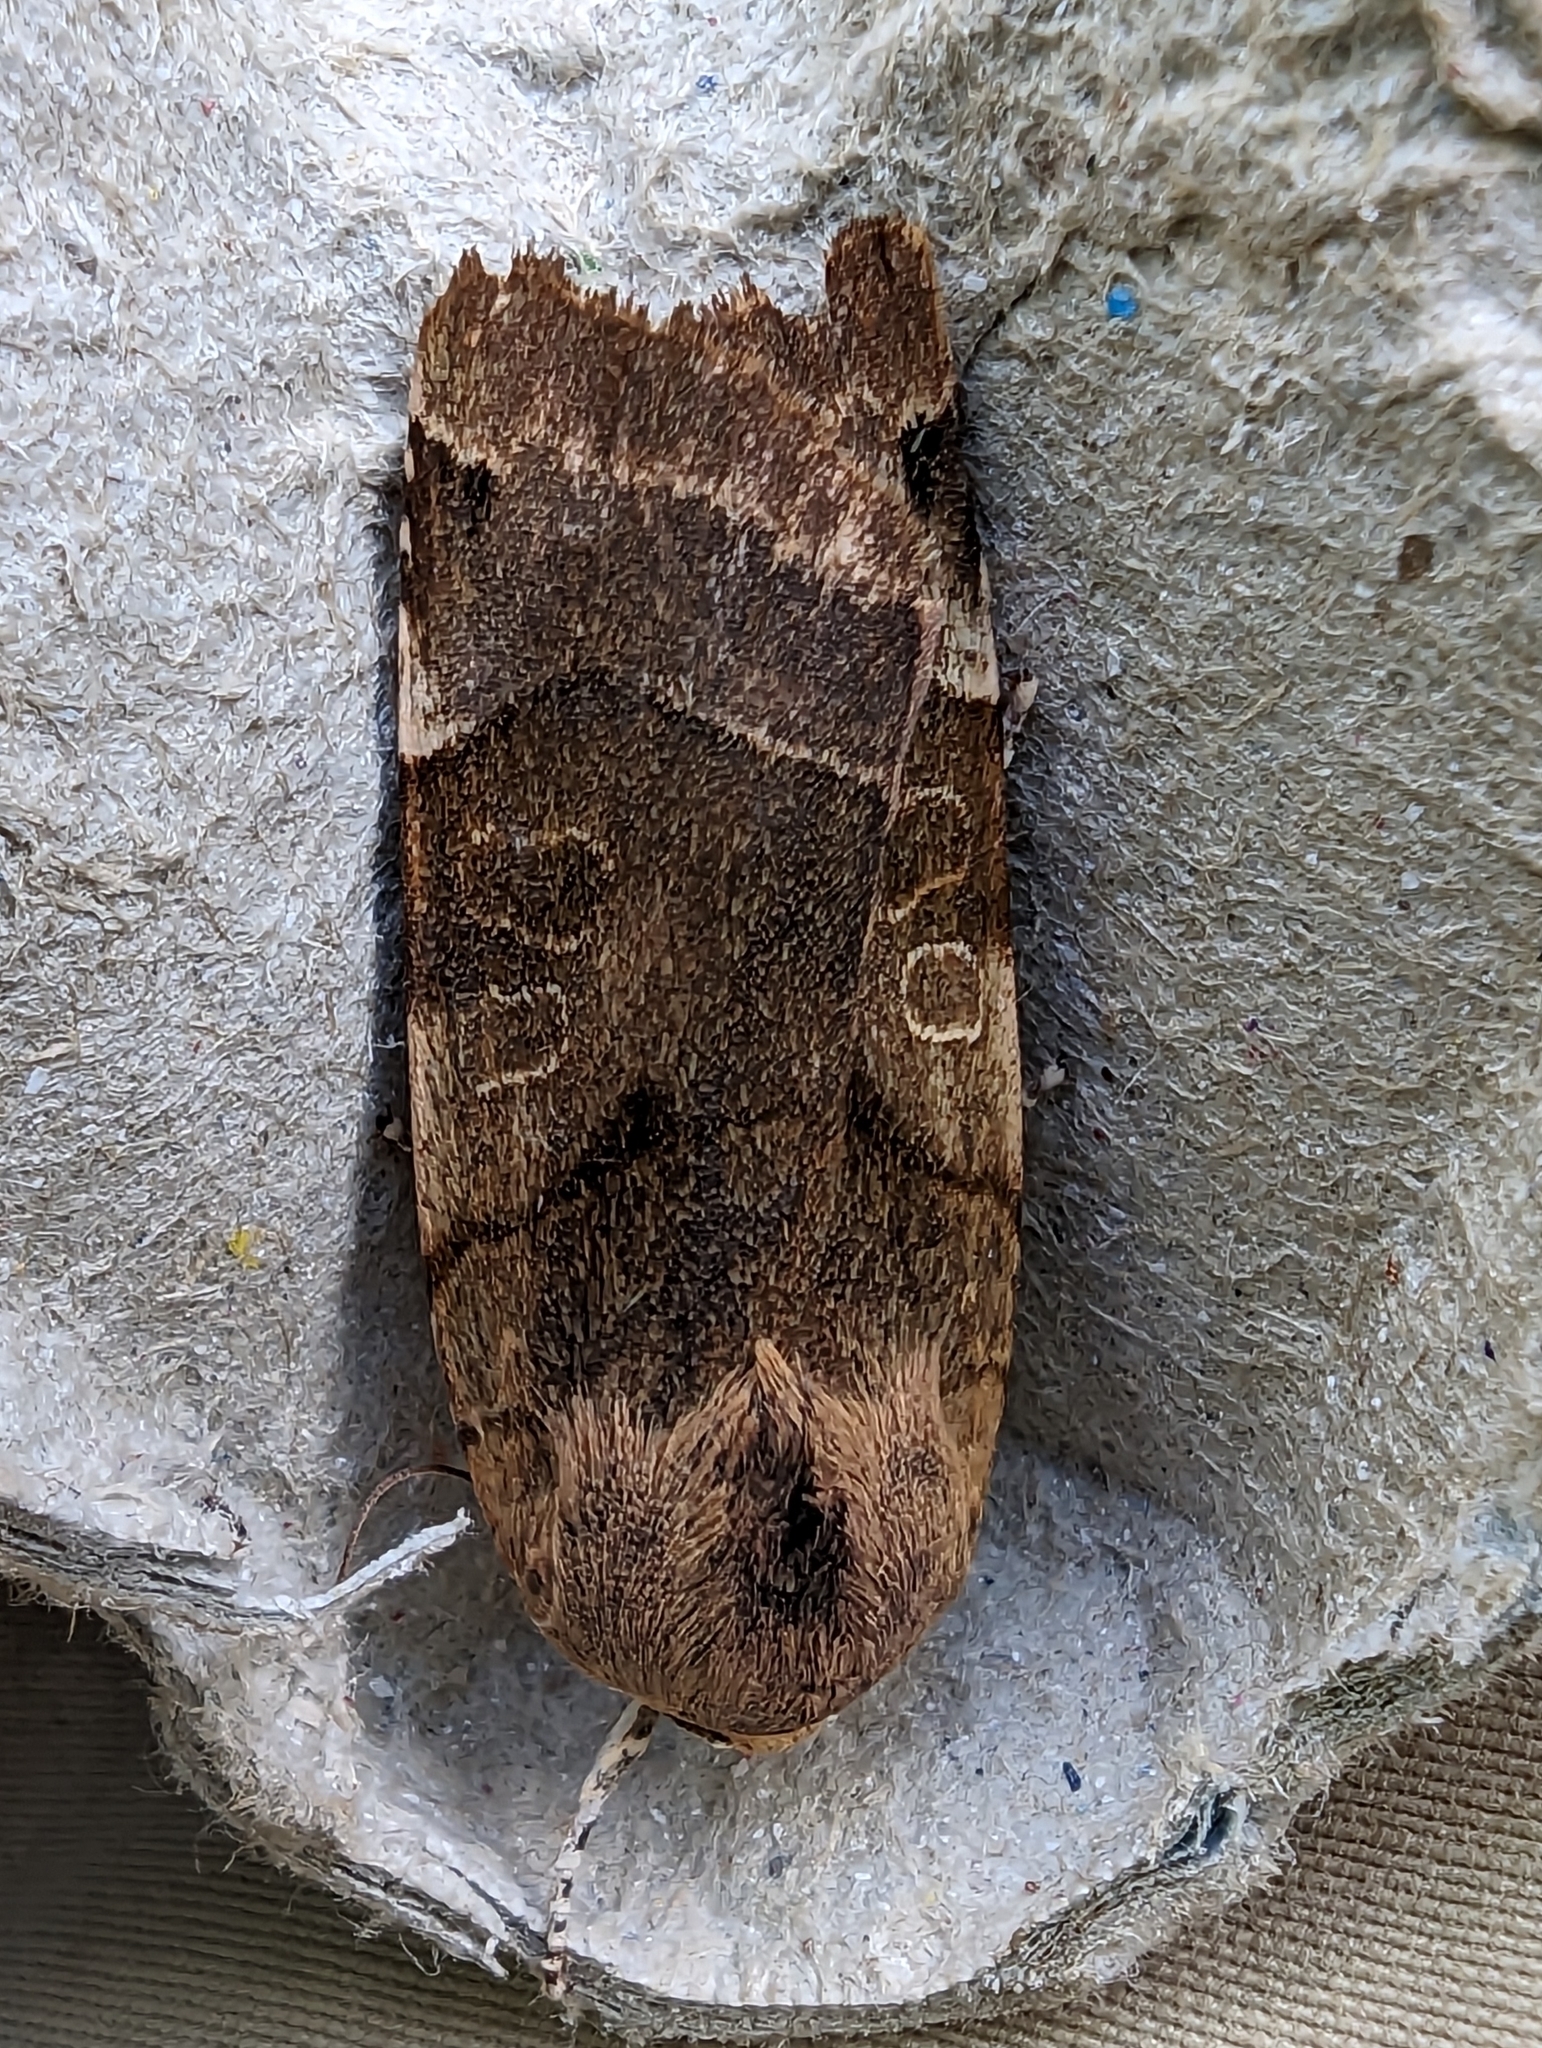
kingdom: Animalia
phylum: Arthropoda
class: Insecta
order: Lepidoptera
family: Noctuidae
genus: Noctua
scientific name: Noctua fimbriata
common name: Broad-bordered yellow underwing
